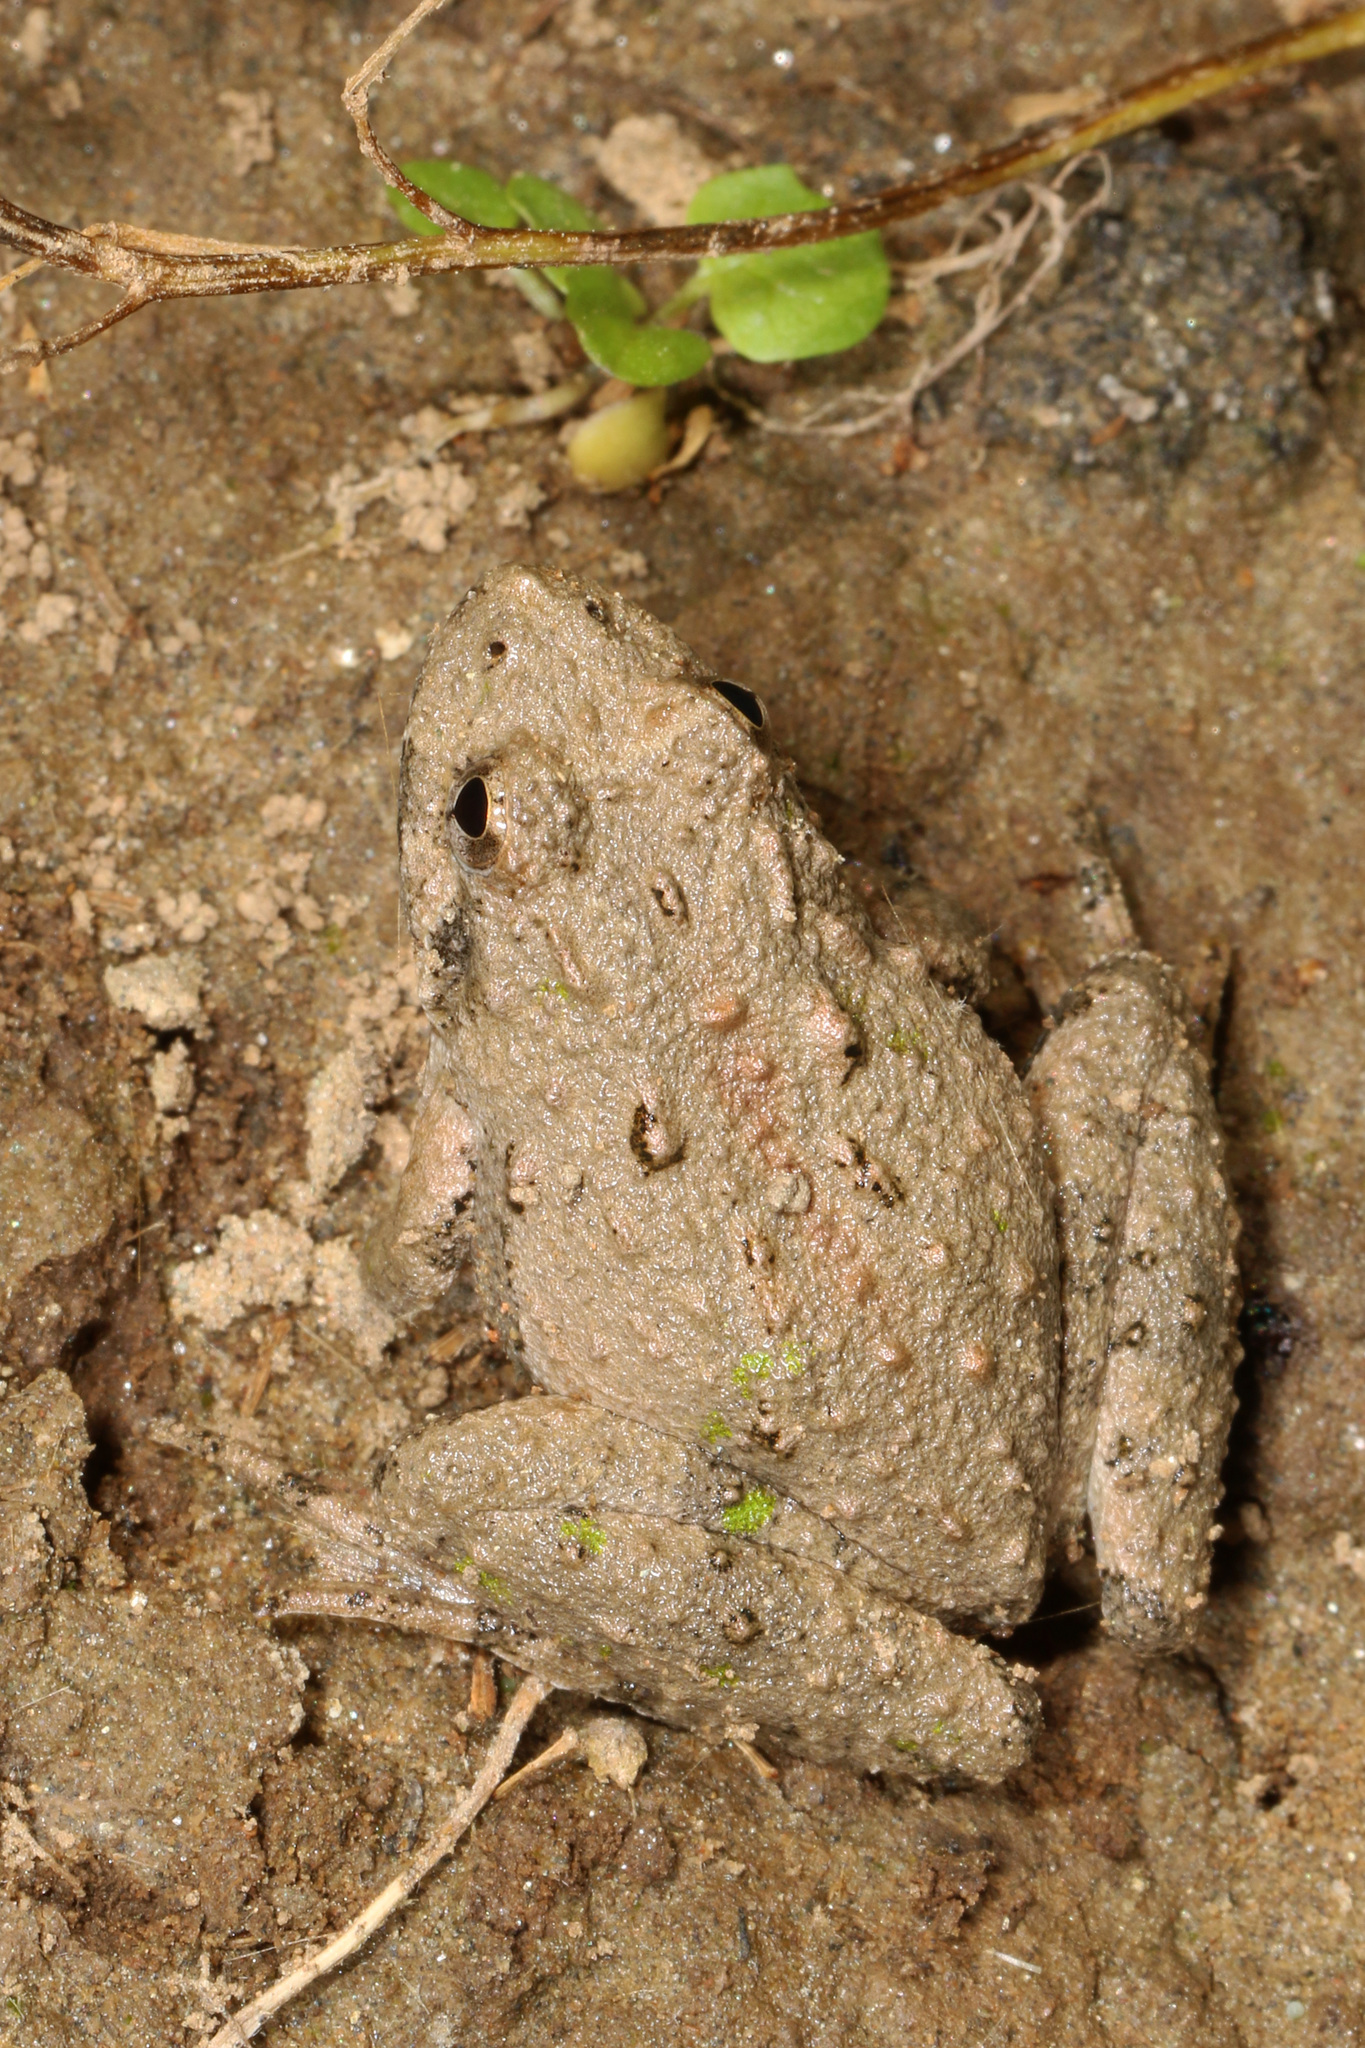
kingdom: Animalia
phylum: Chordata
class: Amphibia
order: Anura
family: Hylidae
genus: Acris
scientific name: Acris crepitans
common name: Northern cricket frog
